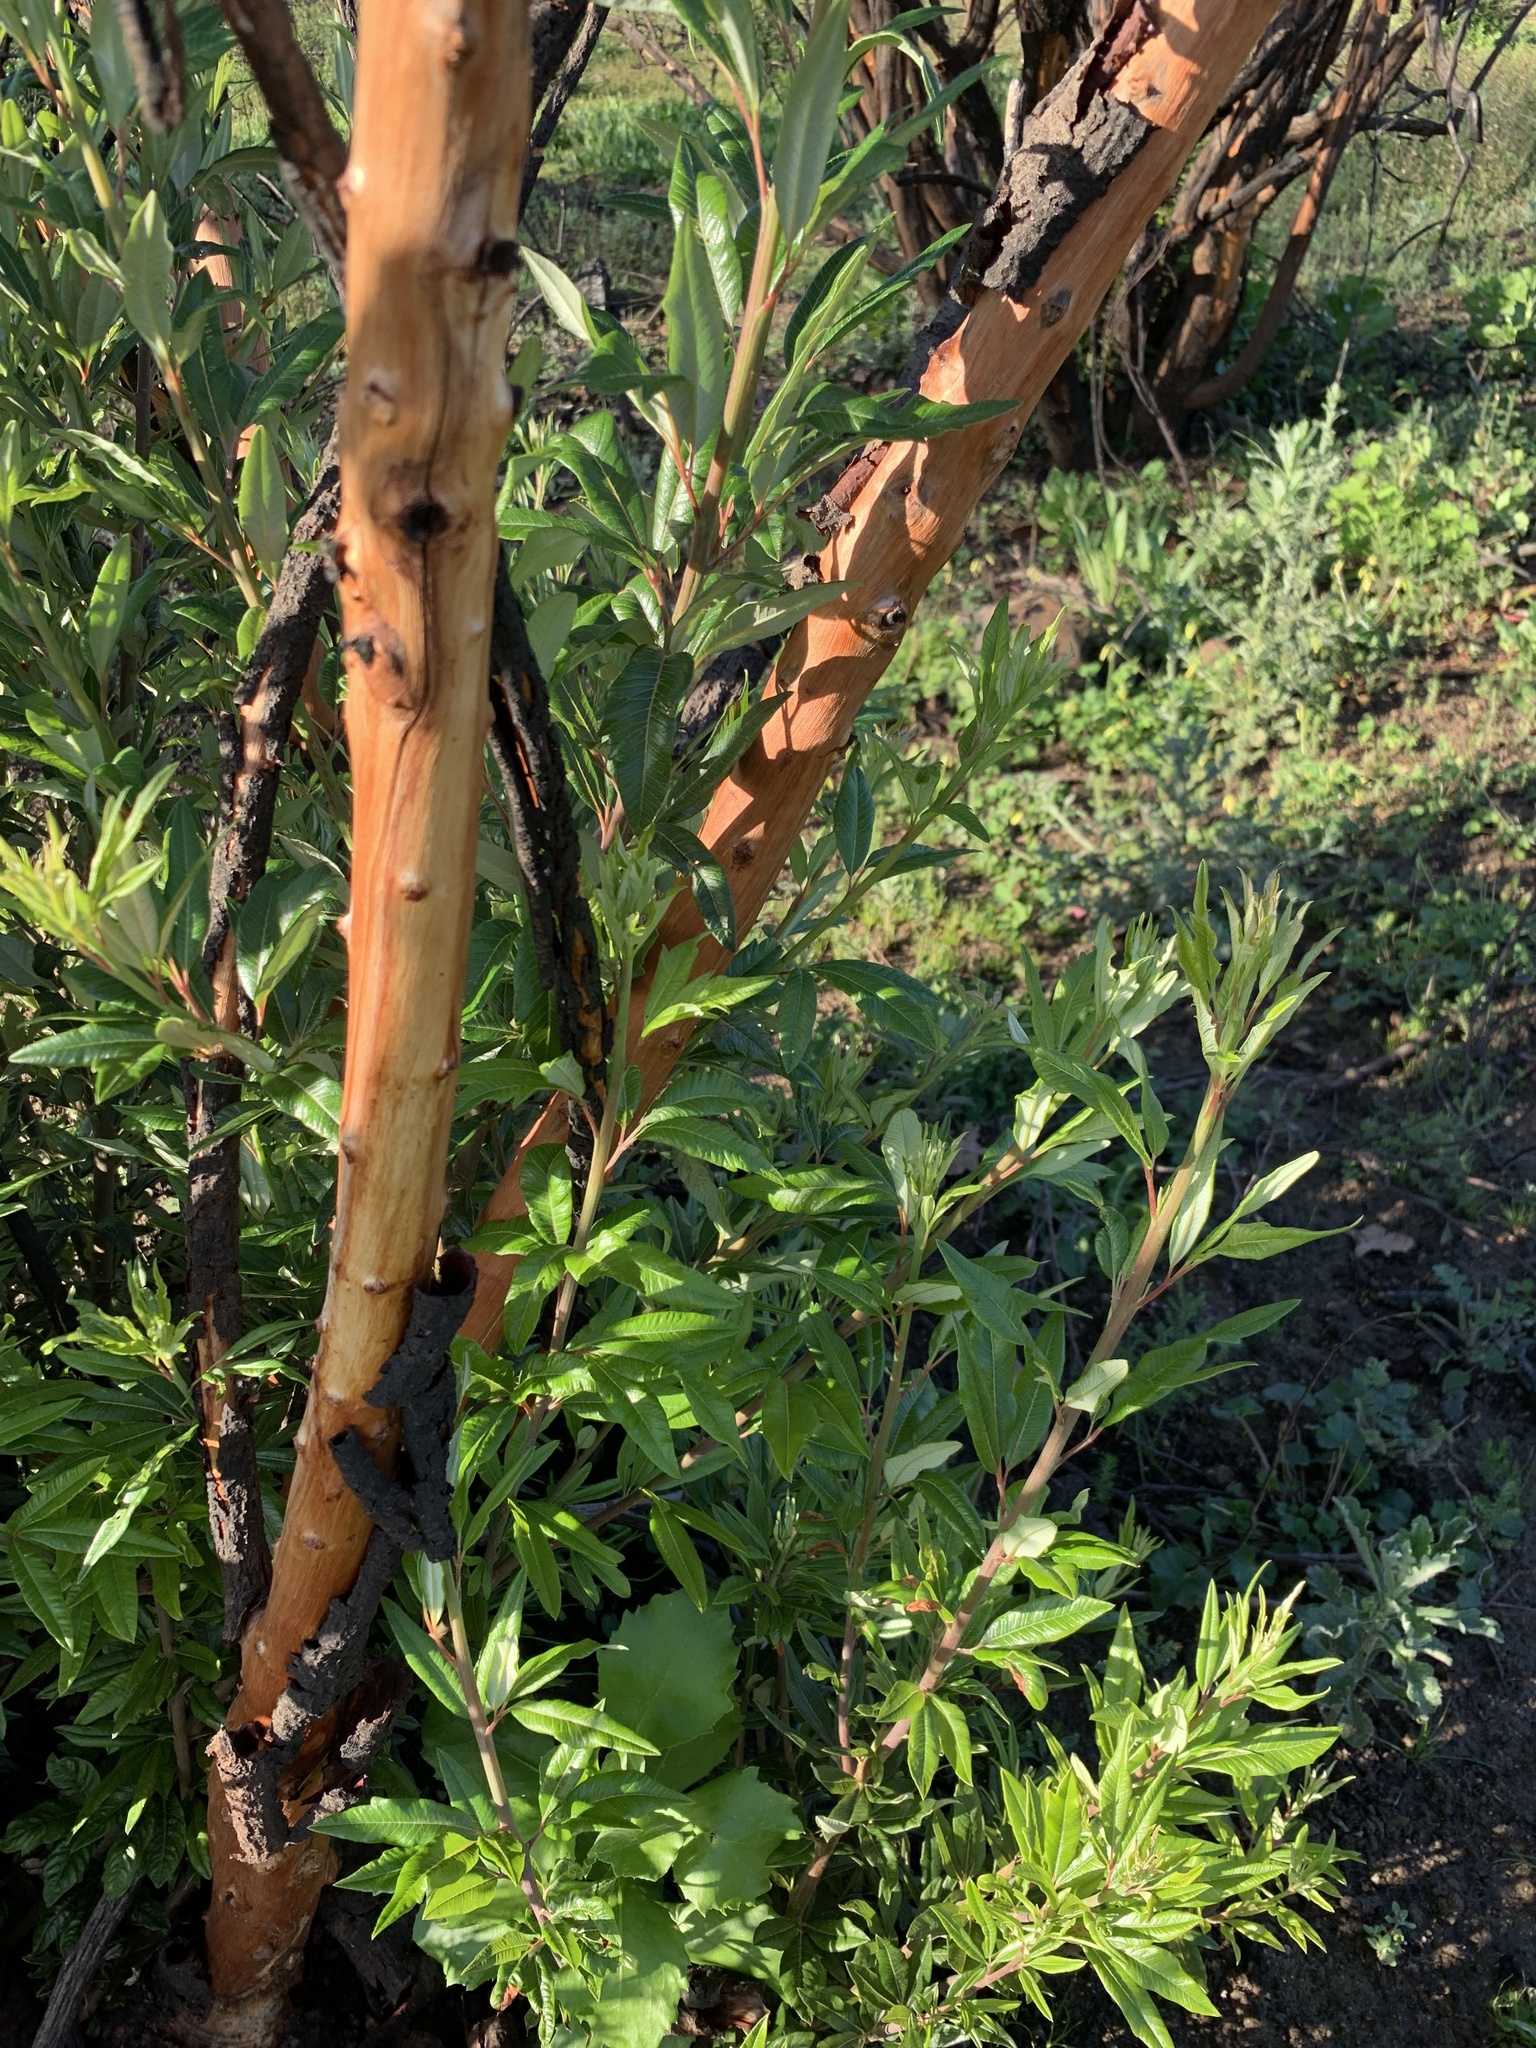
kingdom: Plantae
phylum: Tracheophyta
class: Magnoliopsida
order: Sapindales
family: Anacardiaceae
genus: Searsia
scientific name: Searsia angustifolia
